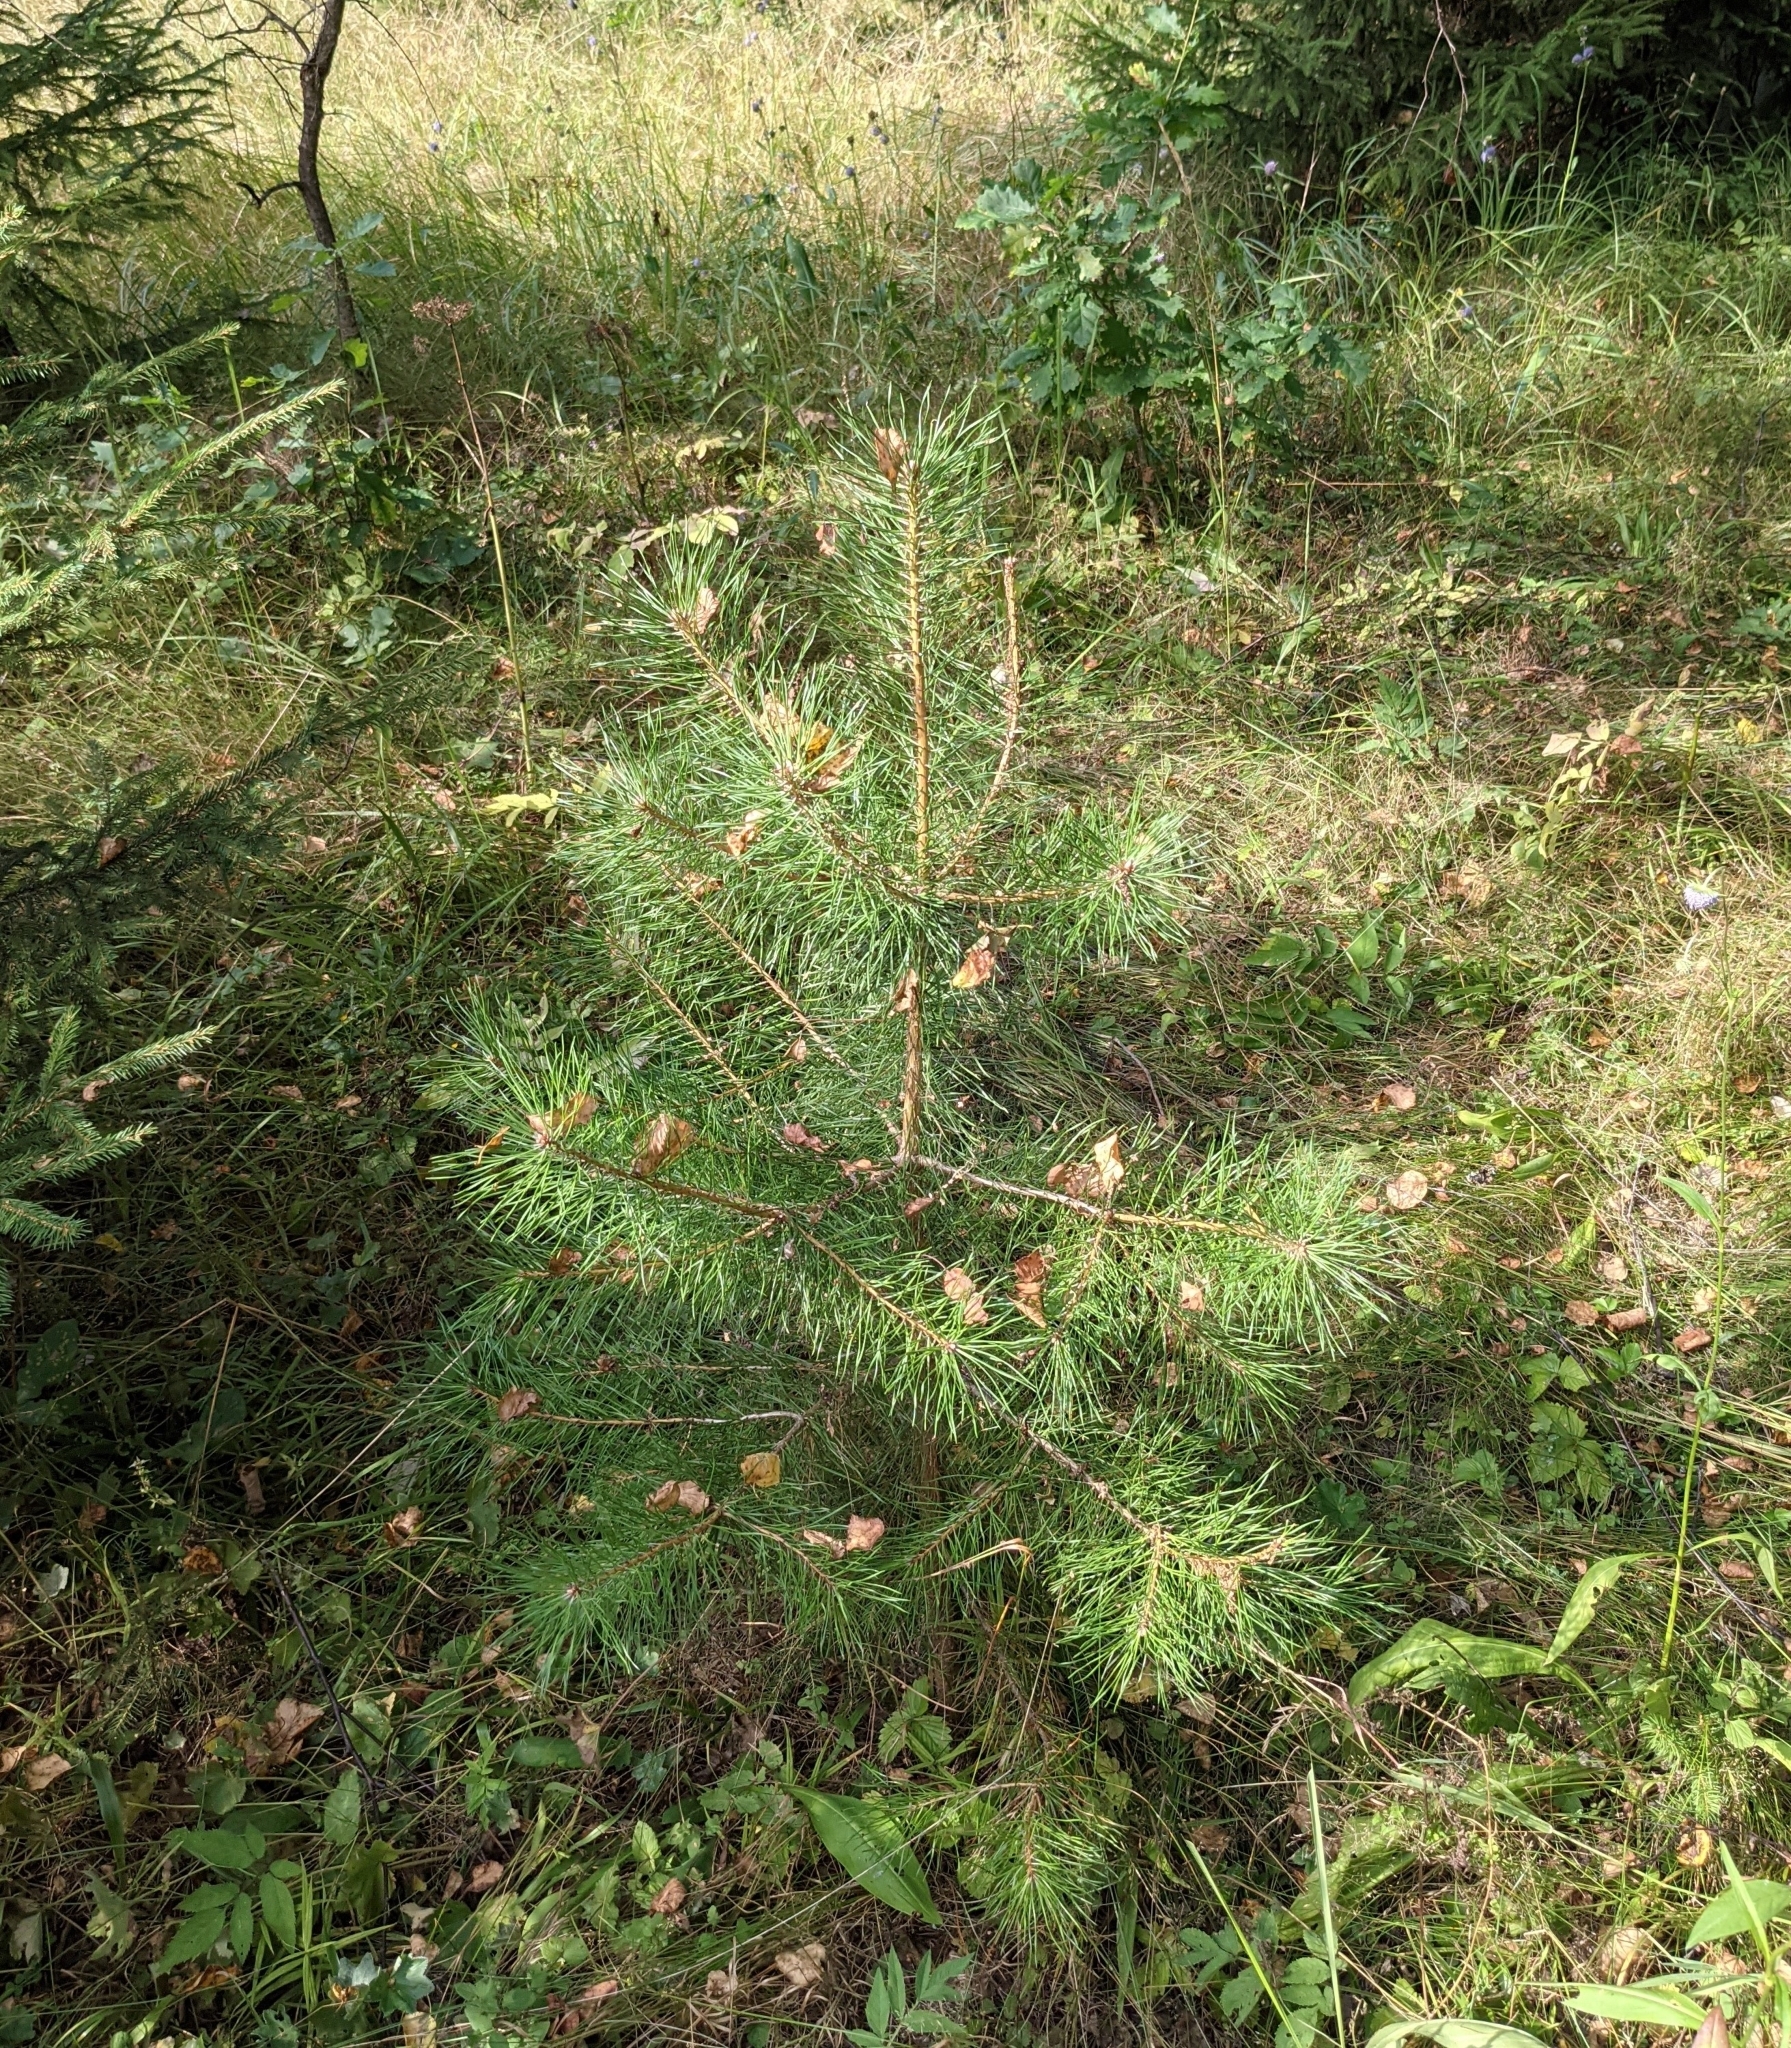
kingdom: Plantae
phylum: Tracheophyta
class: Pinopsida
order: Pinales
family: Pinaceae
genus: Pinus
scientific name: Pinus sylvestris
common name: Scots pine
